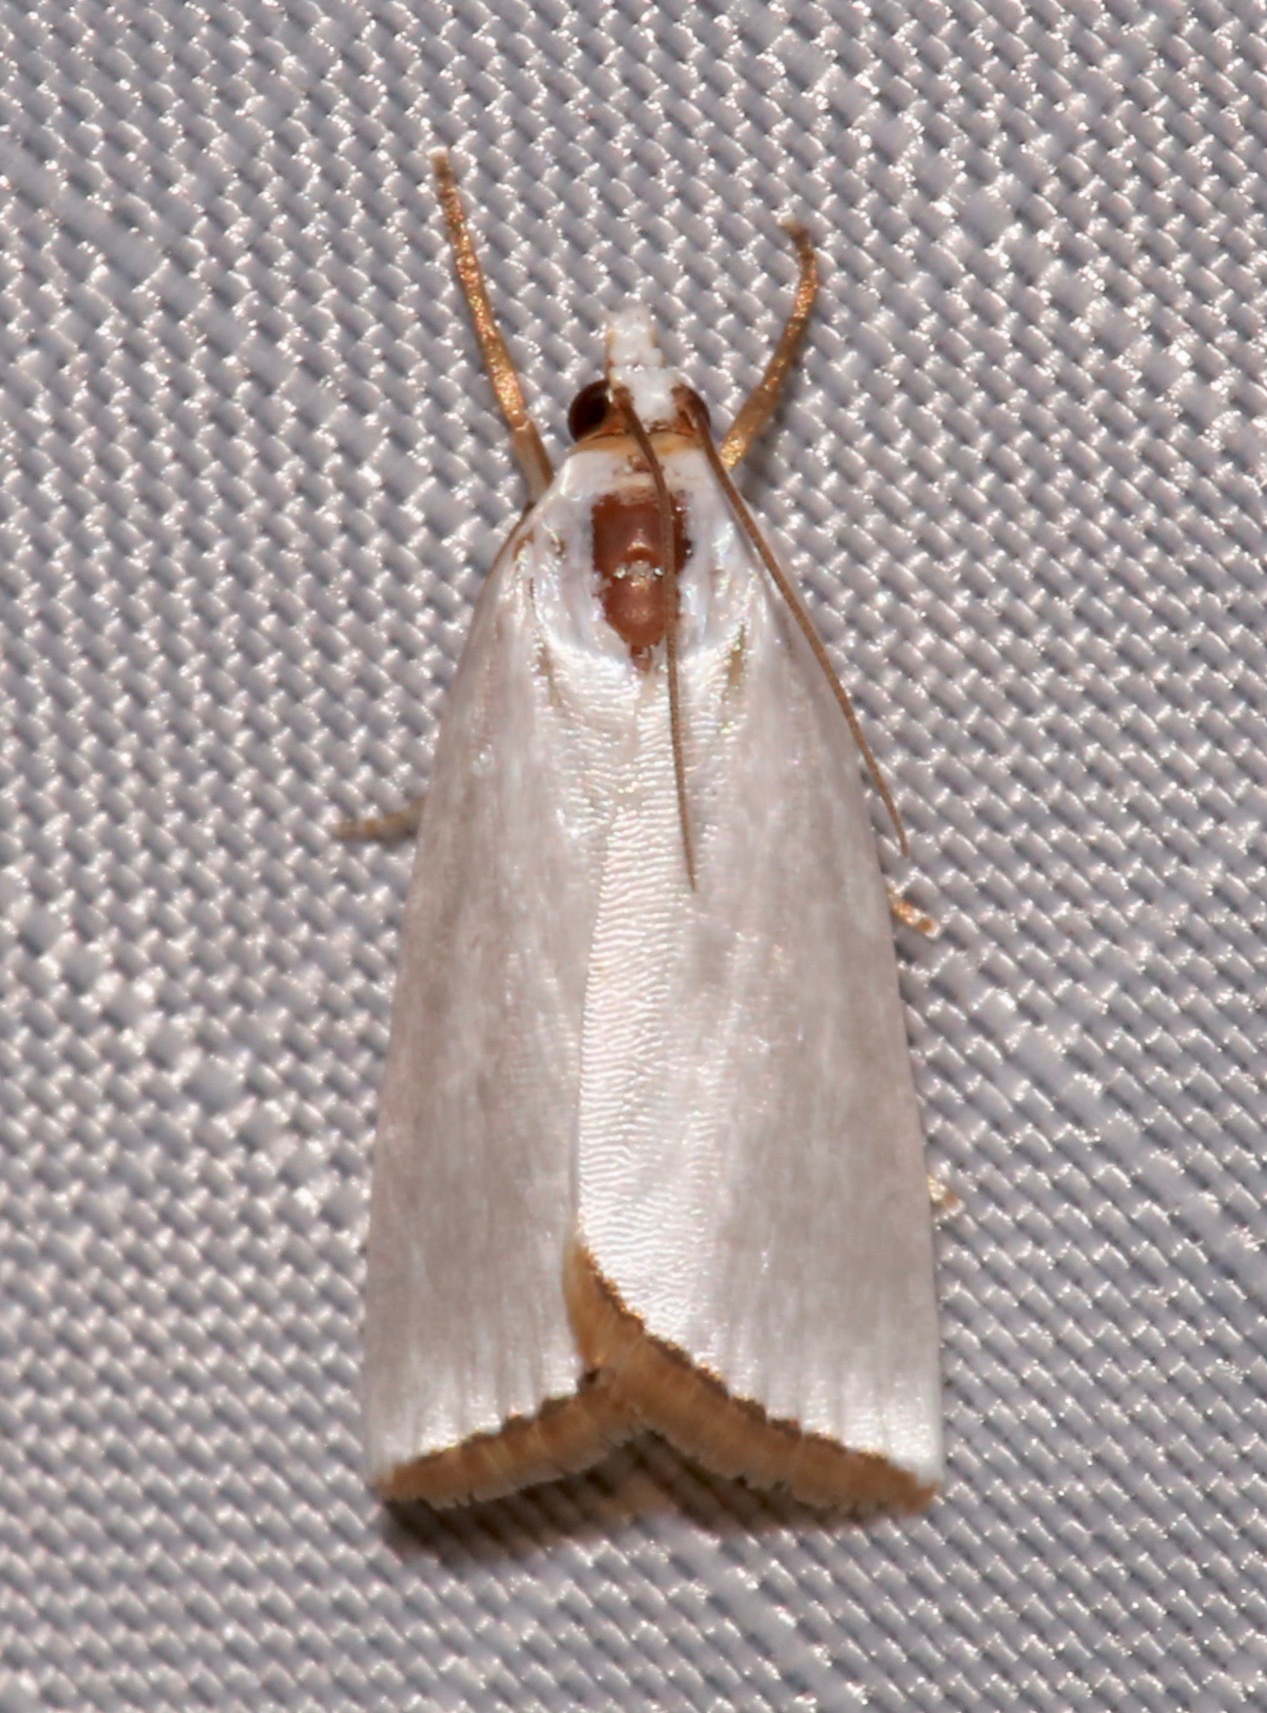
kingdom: Animalia
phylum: Arthropoda
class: Insecta
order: Lepidoptera
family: Crambidae
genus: Argyria
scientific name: Argyria nivalis
